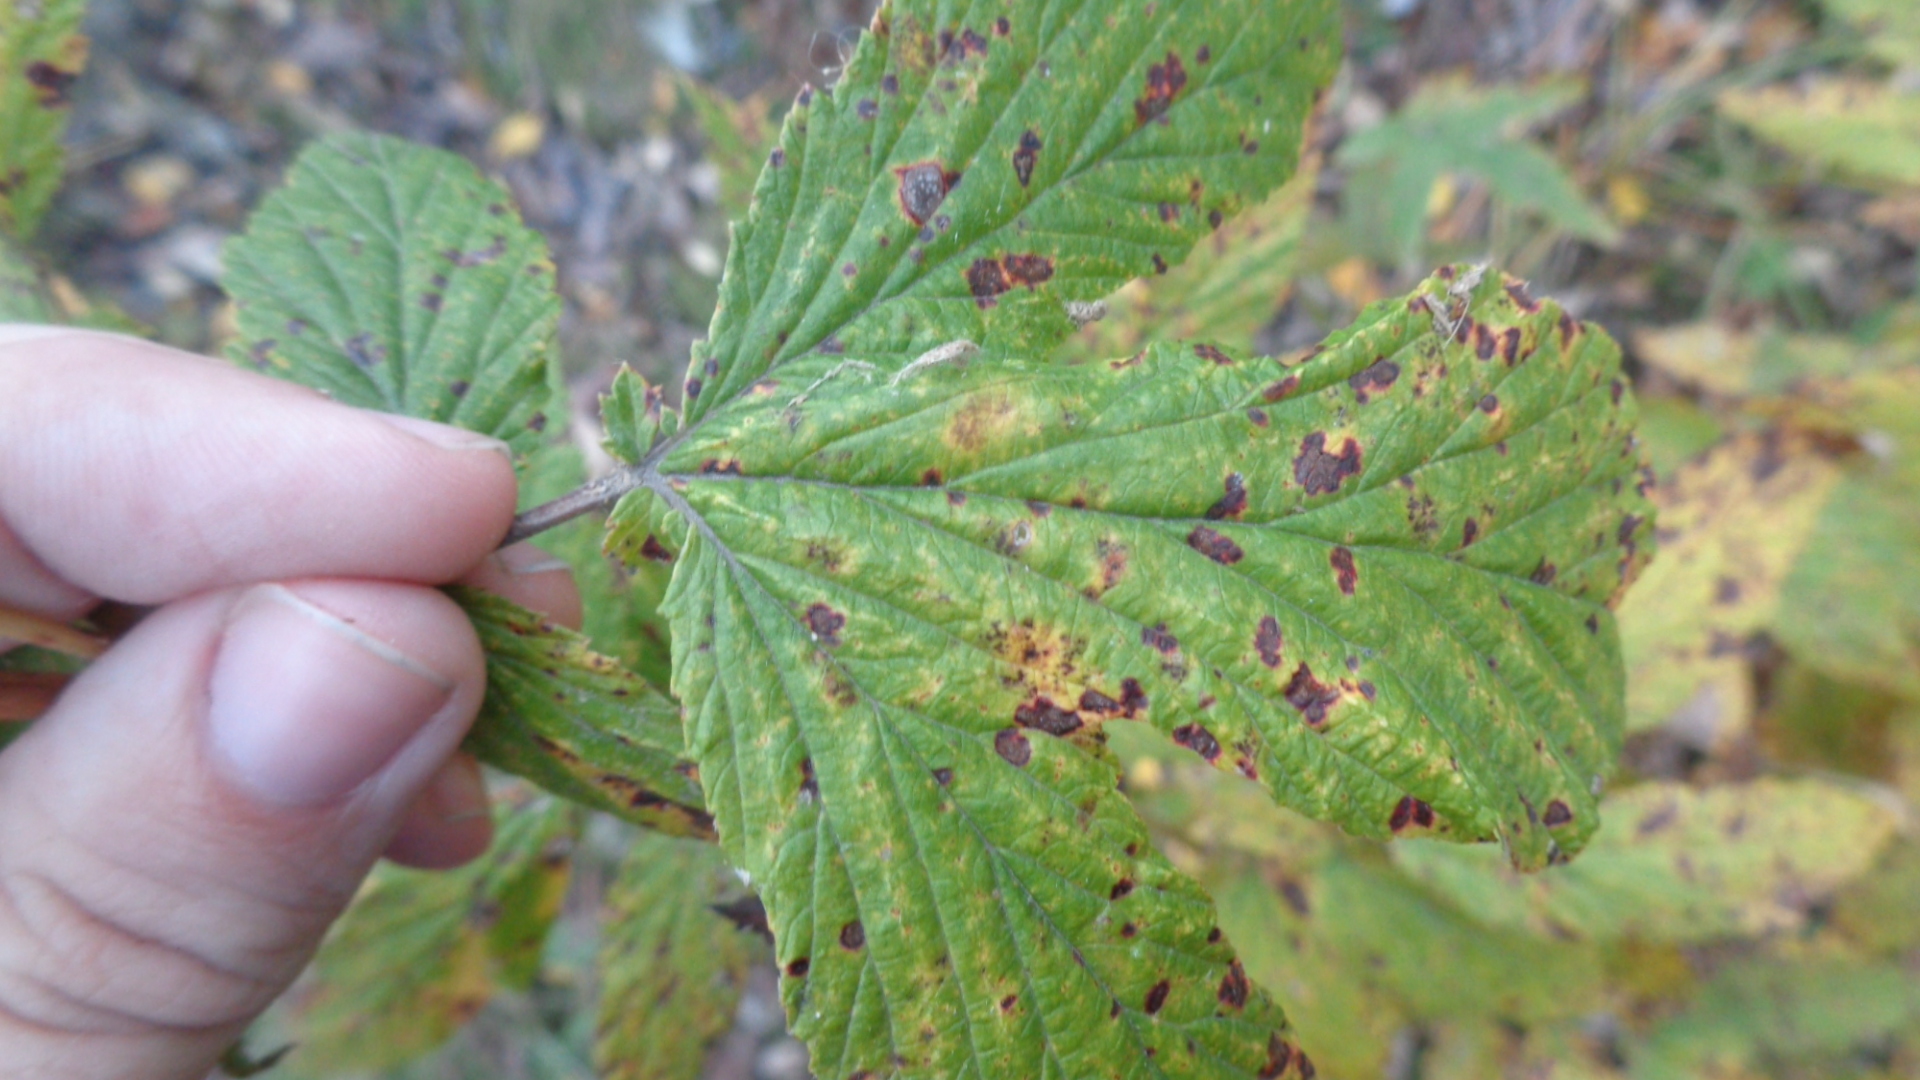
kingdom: Plantae
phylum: Tracheophyta
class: Magnoliopsida
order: Rosales
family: Rosaceae
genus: Filipendula
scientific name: Filipendula ulmaria
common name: Meadowsweet
